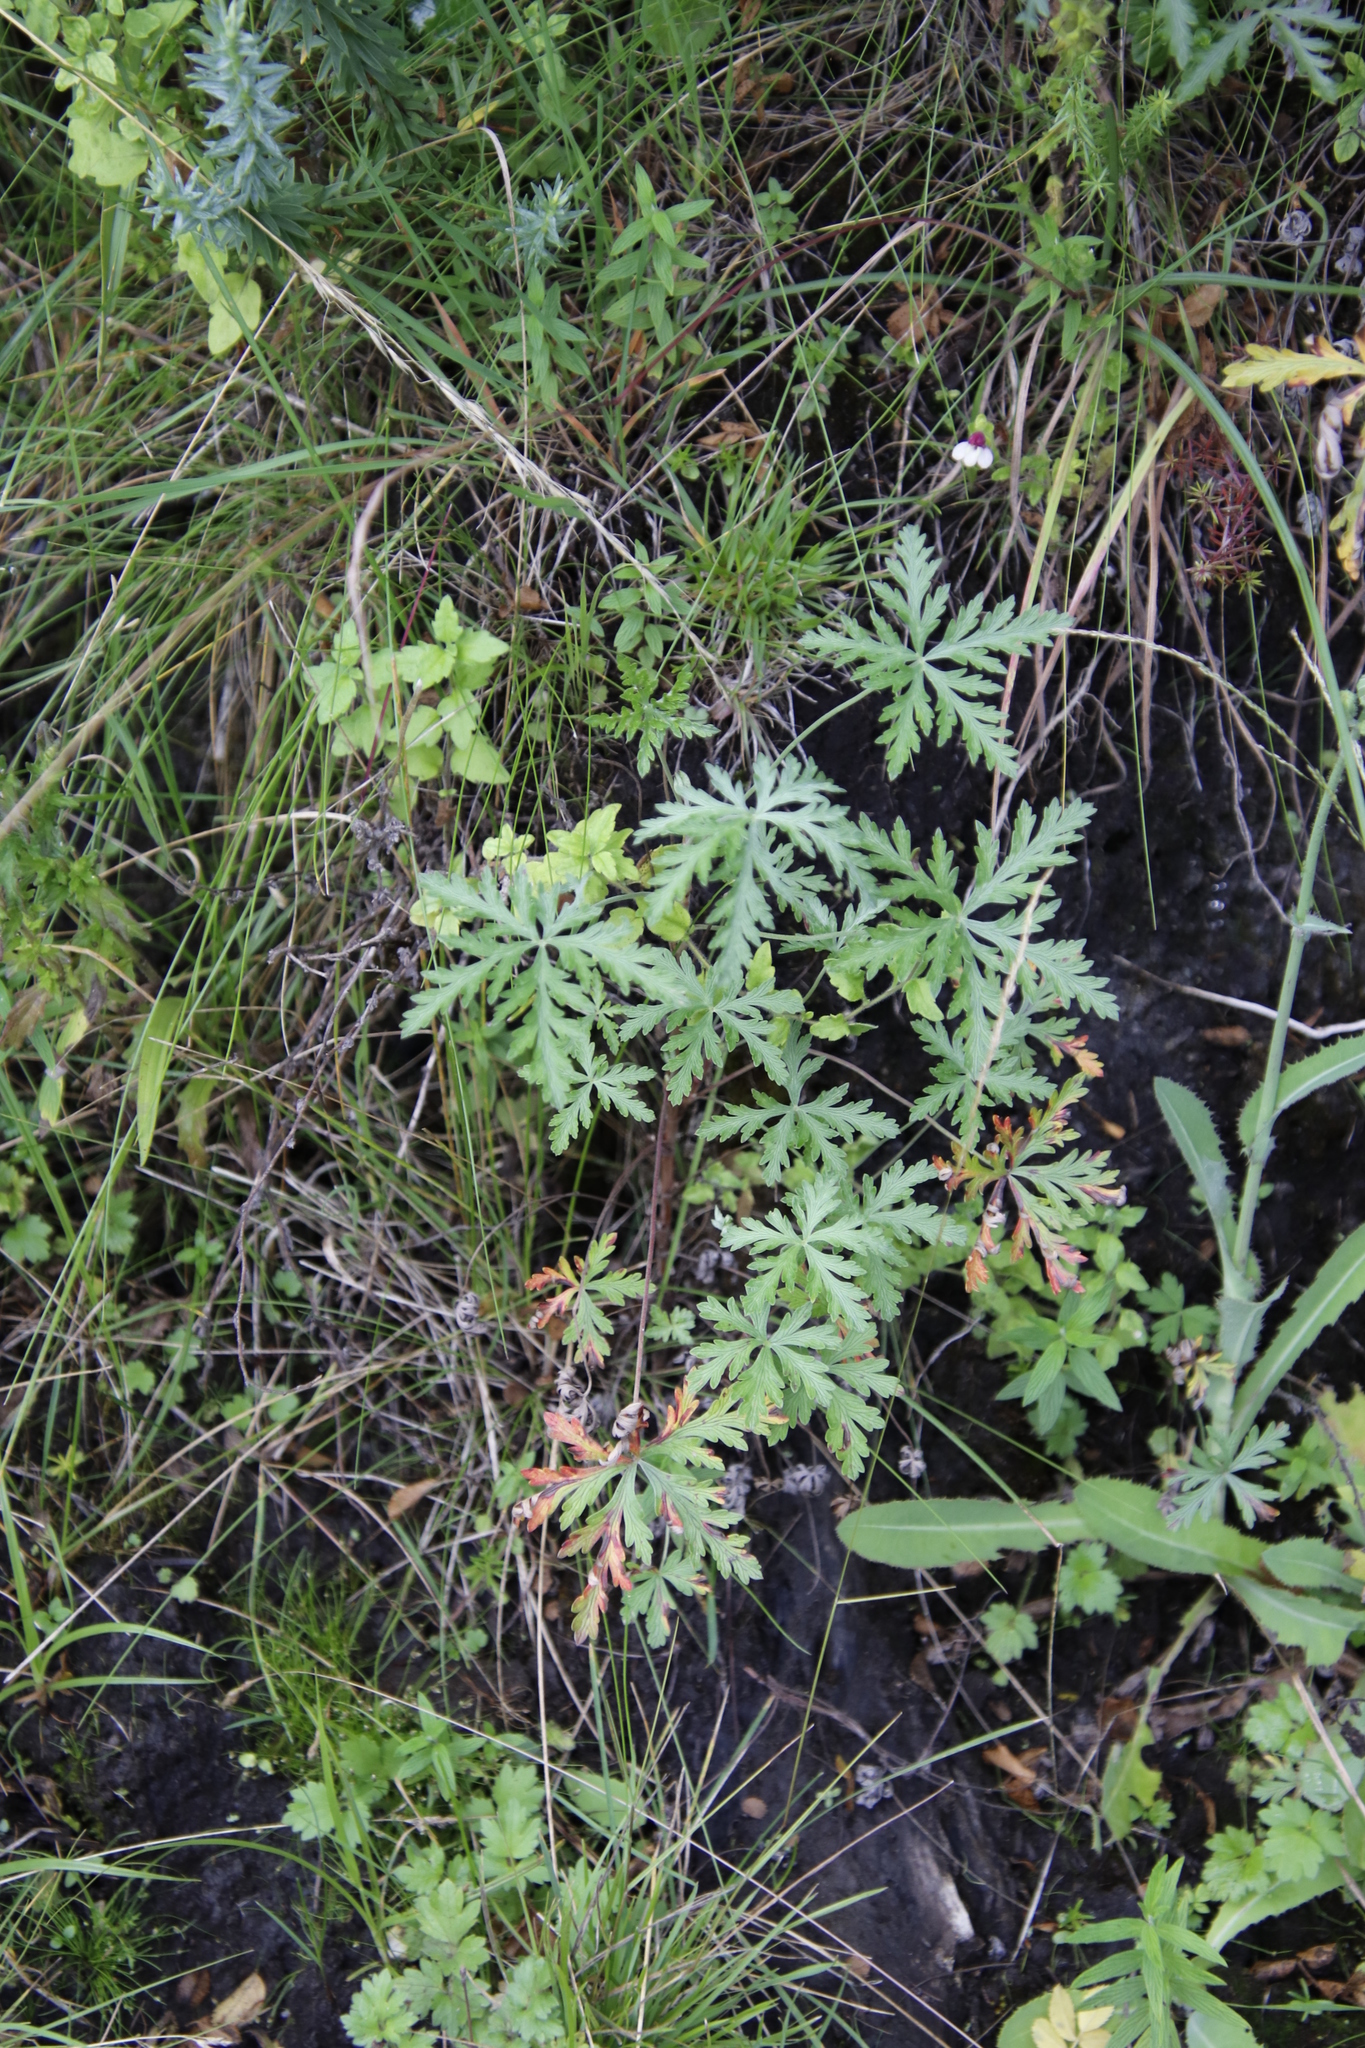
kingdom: Plantae
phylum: Tracheophyta
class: Magnoliopsida
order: Geraniales
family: Geraniaceae
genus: Geranium
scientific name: Geranium drakensbergense
